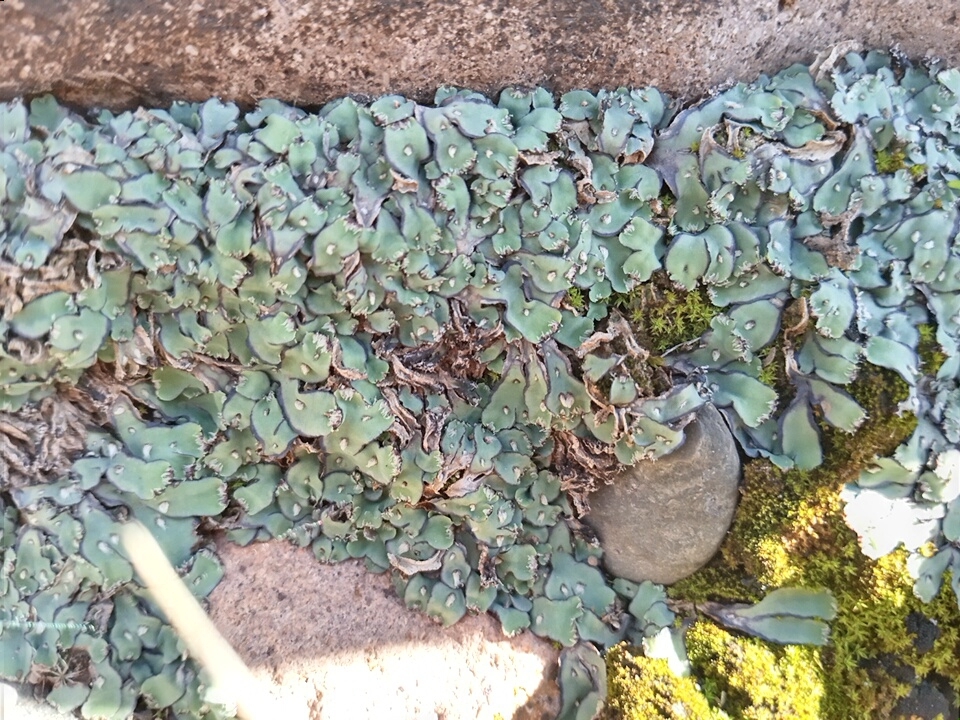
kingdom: Plantae
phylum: Marchantiophyta
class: Marchantiopsida
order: Marchantiales
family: Aytoniaceae
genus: Plagiochasma
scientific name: Plagiochasma rupestre
